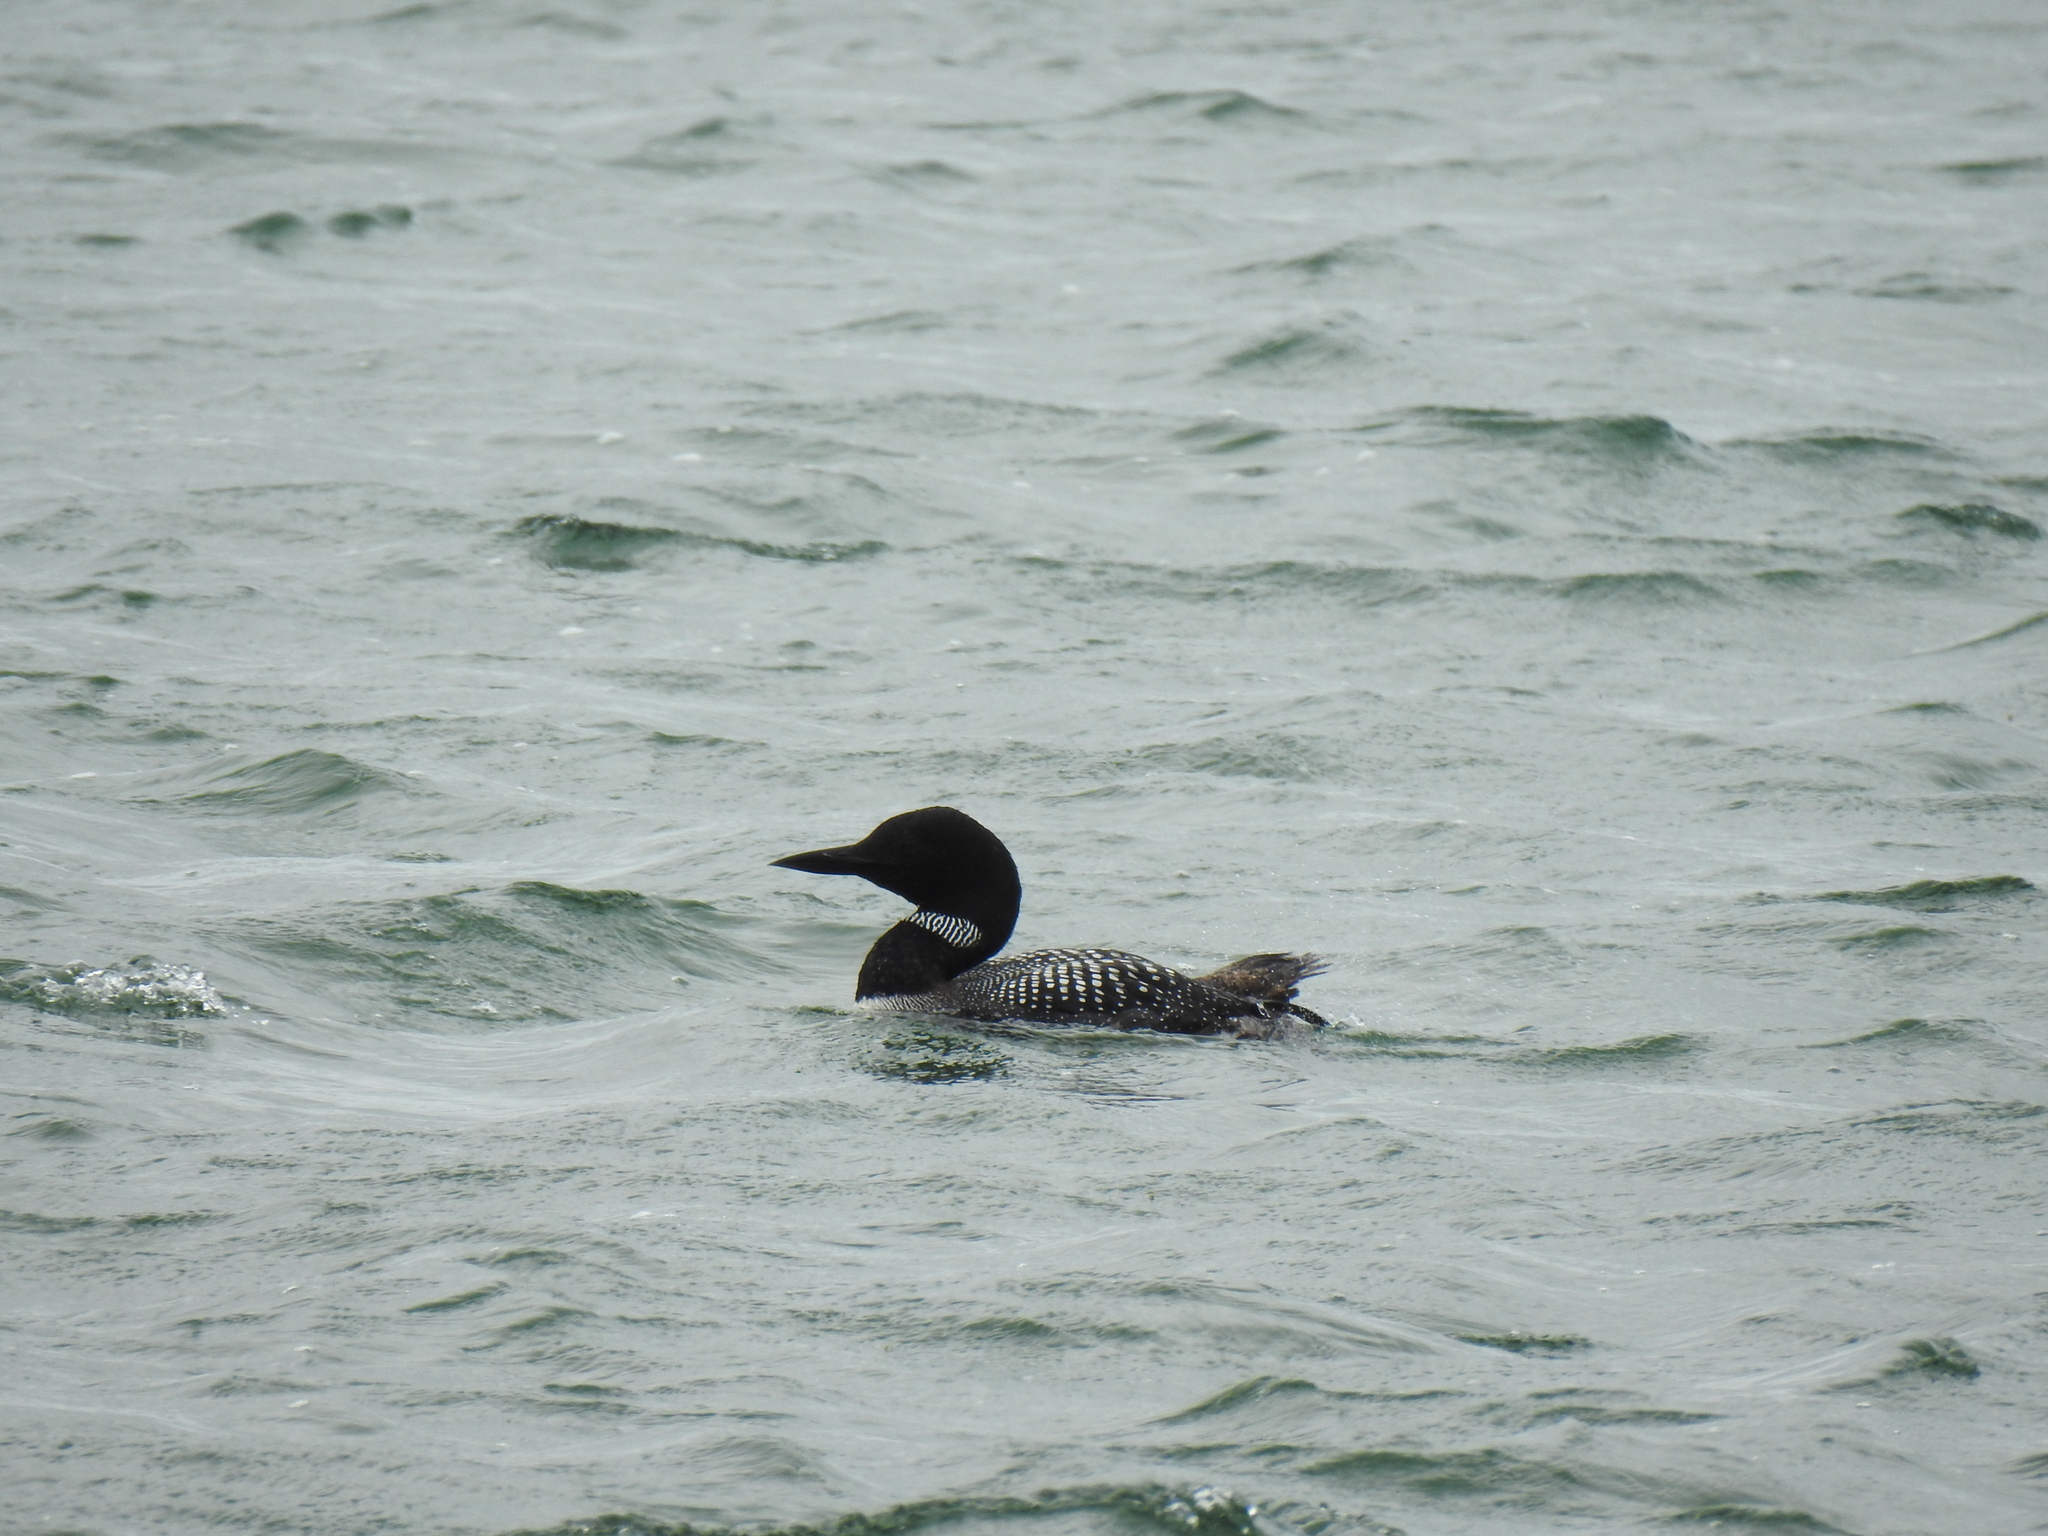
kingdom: Animalia
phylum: Chordata
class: Aves
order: Gaviiformes
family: Gaviidae
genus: Gavia
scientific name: Gavia immer
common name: Common loon
